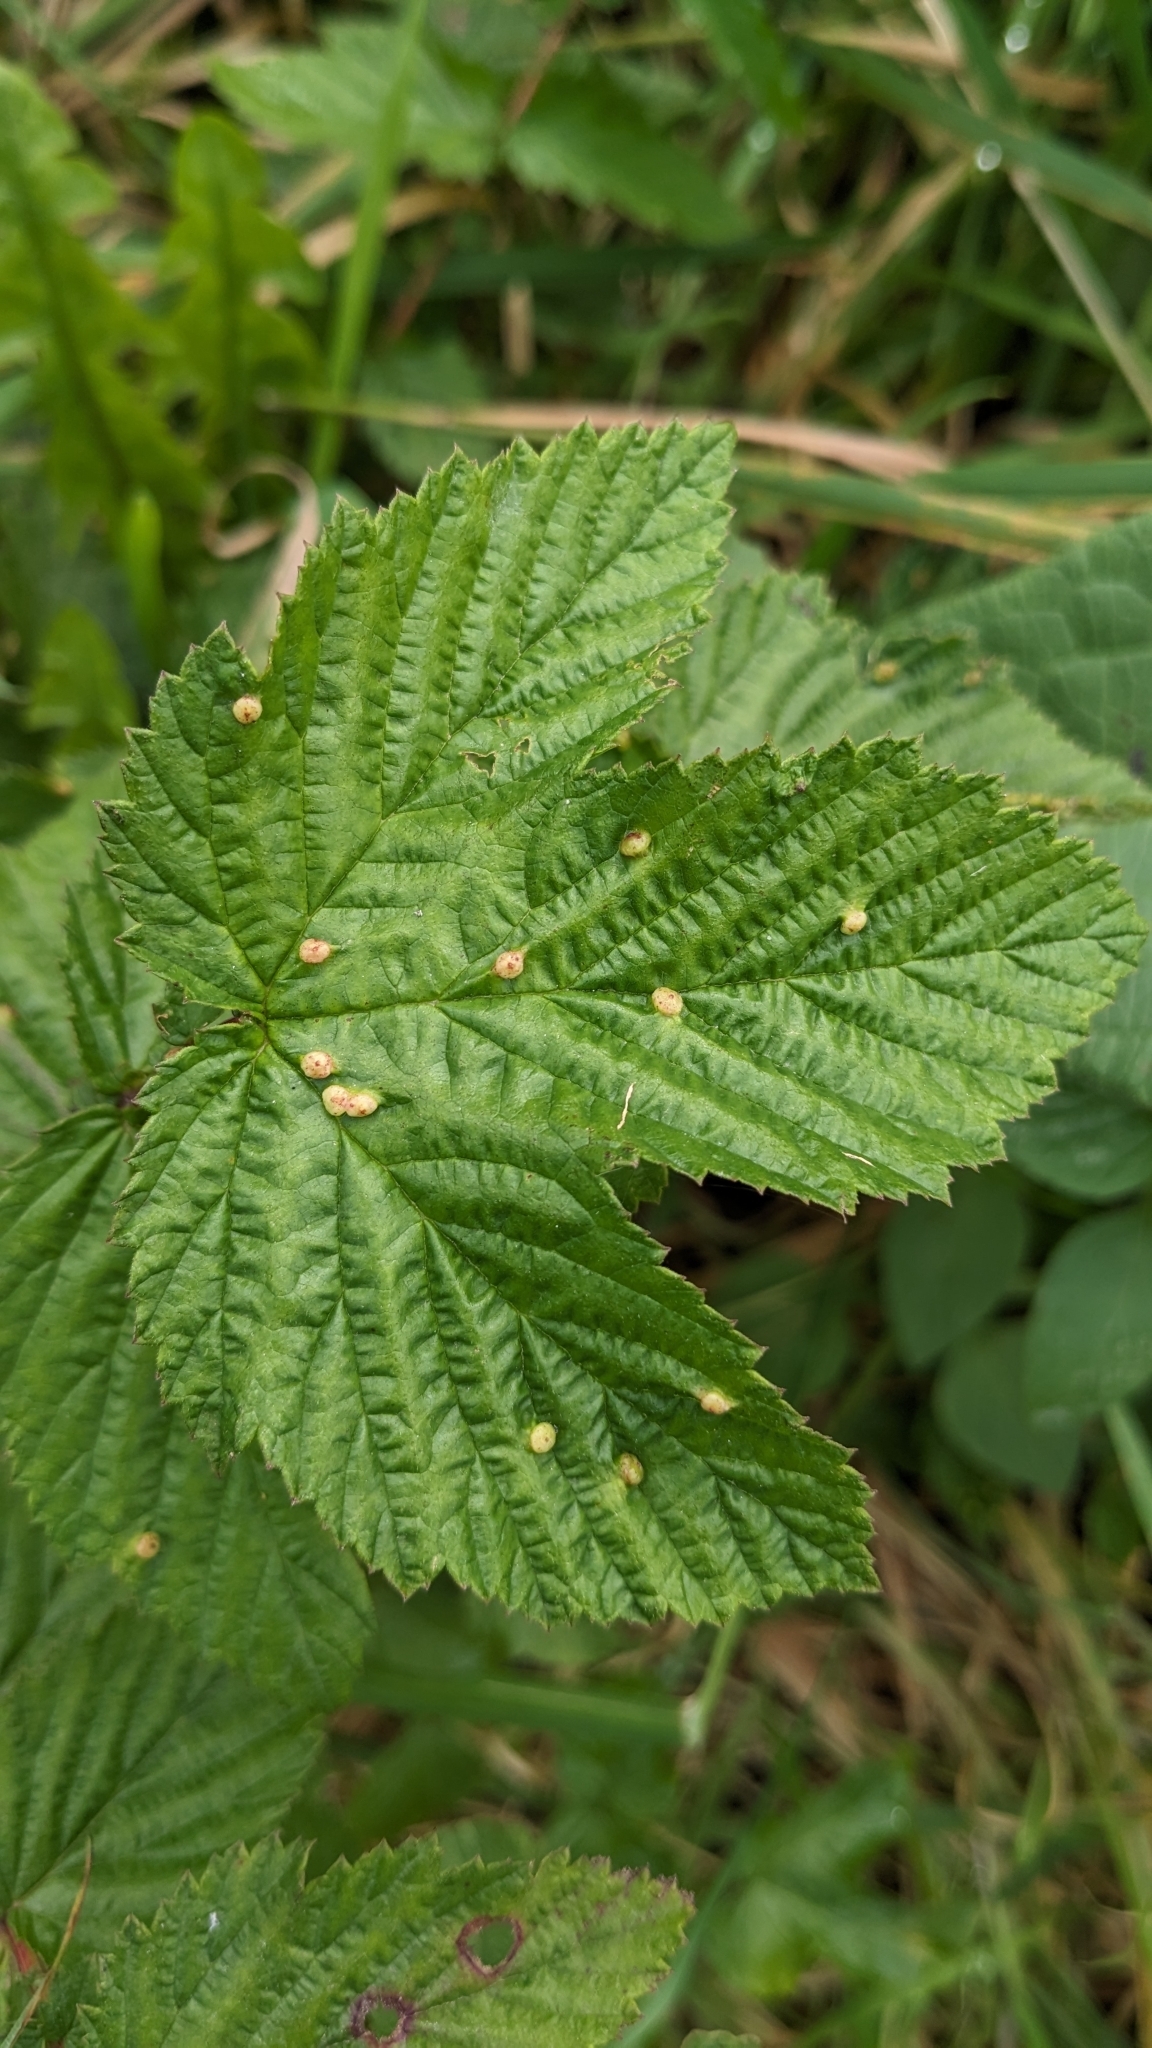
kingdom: Animalia
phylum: Arthropoda
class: Insecta
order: Diptera
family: Cecidomyiidae
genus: Dasineura
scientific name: Dasineura ulmaria
